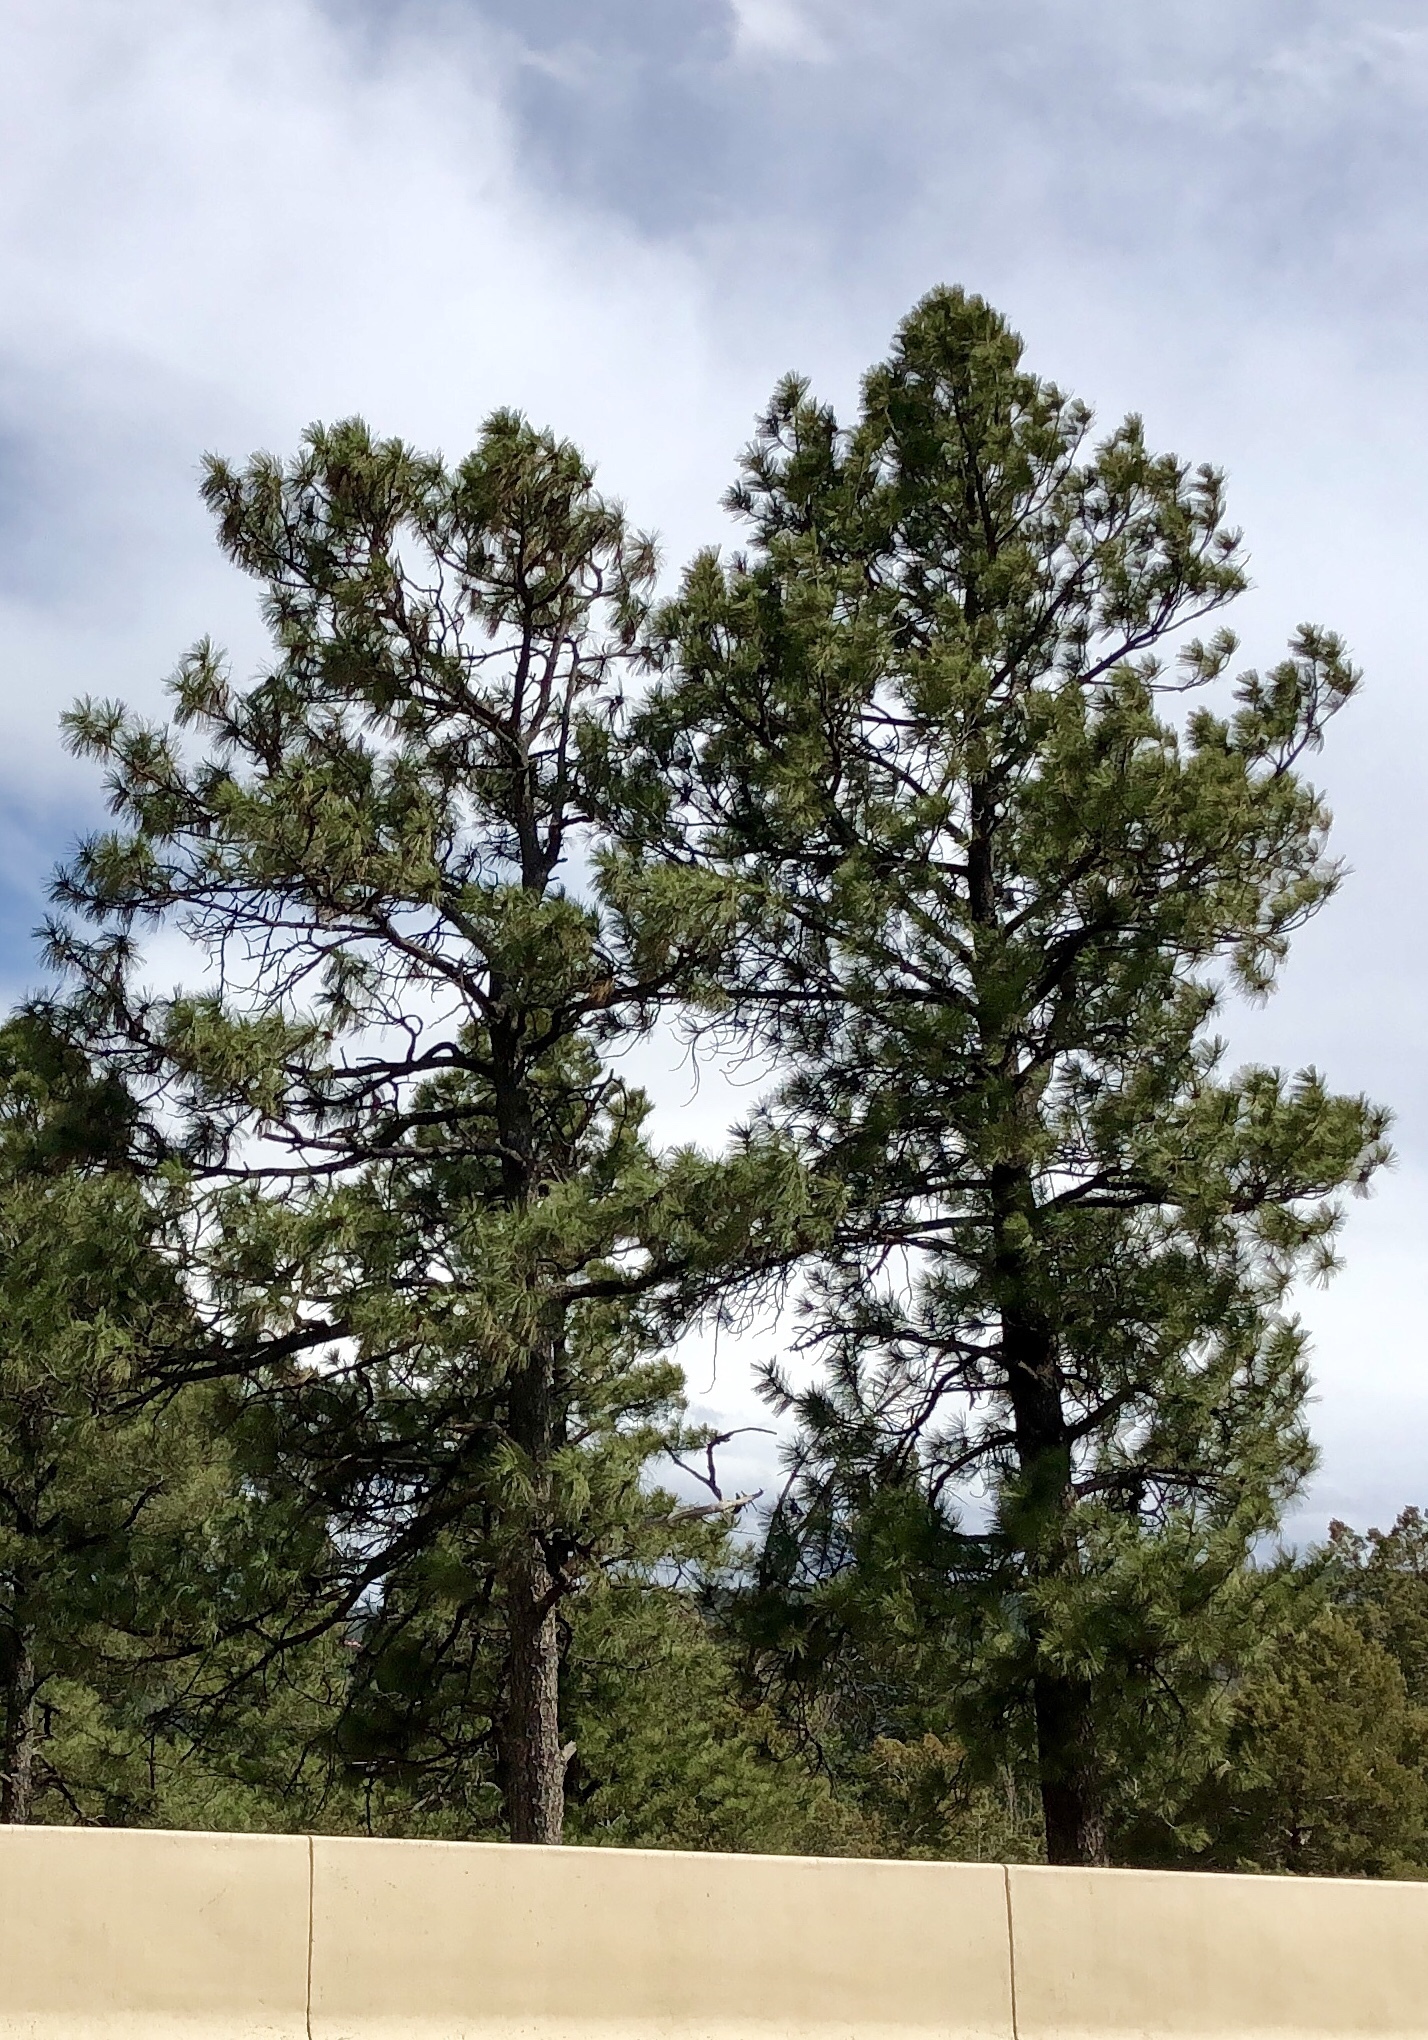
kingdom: Plantae
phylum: Tracheophyta
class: Pinopsida
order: Pinales
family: Pinaceae
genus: Pinus
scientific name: Pinus ponderosa
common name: Western yellow-pine
